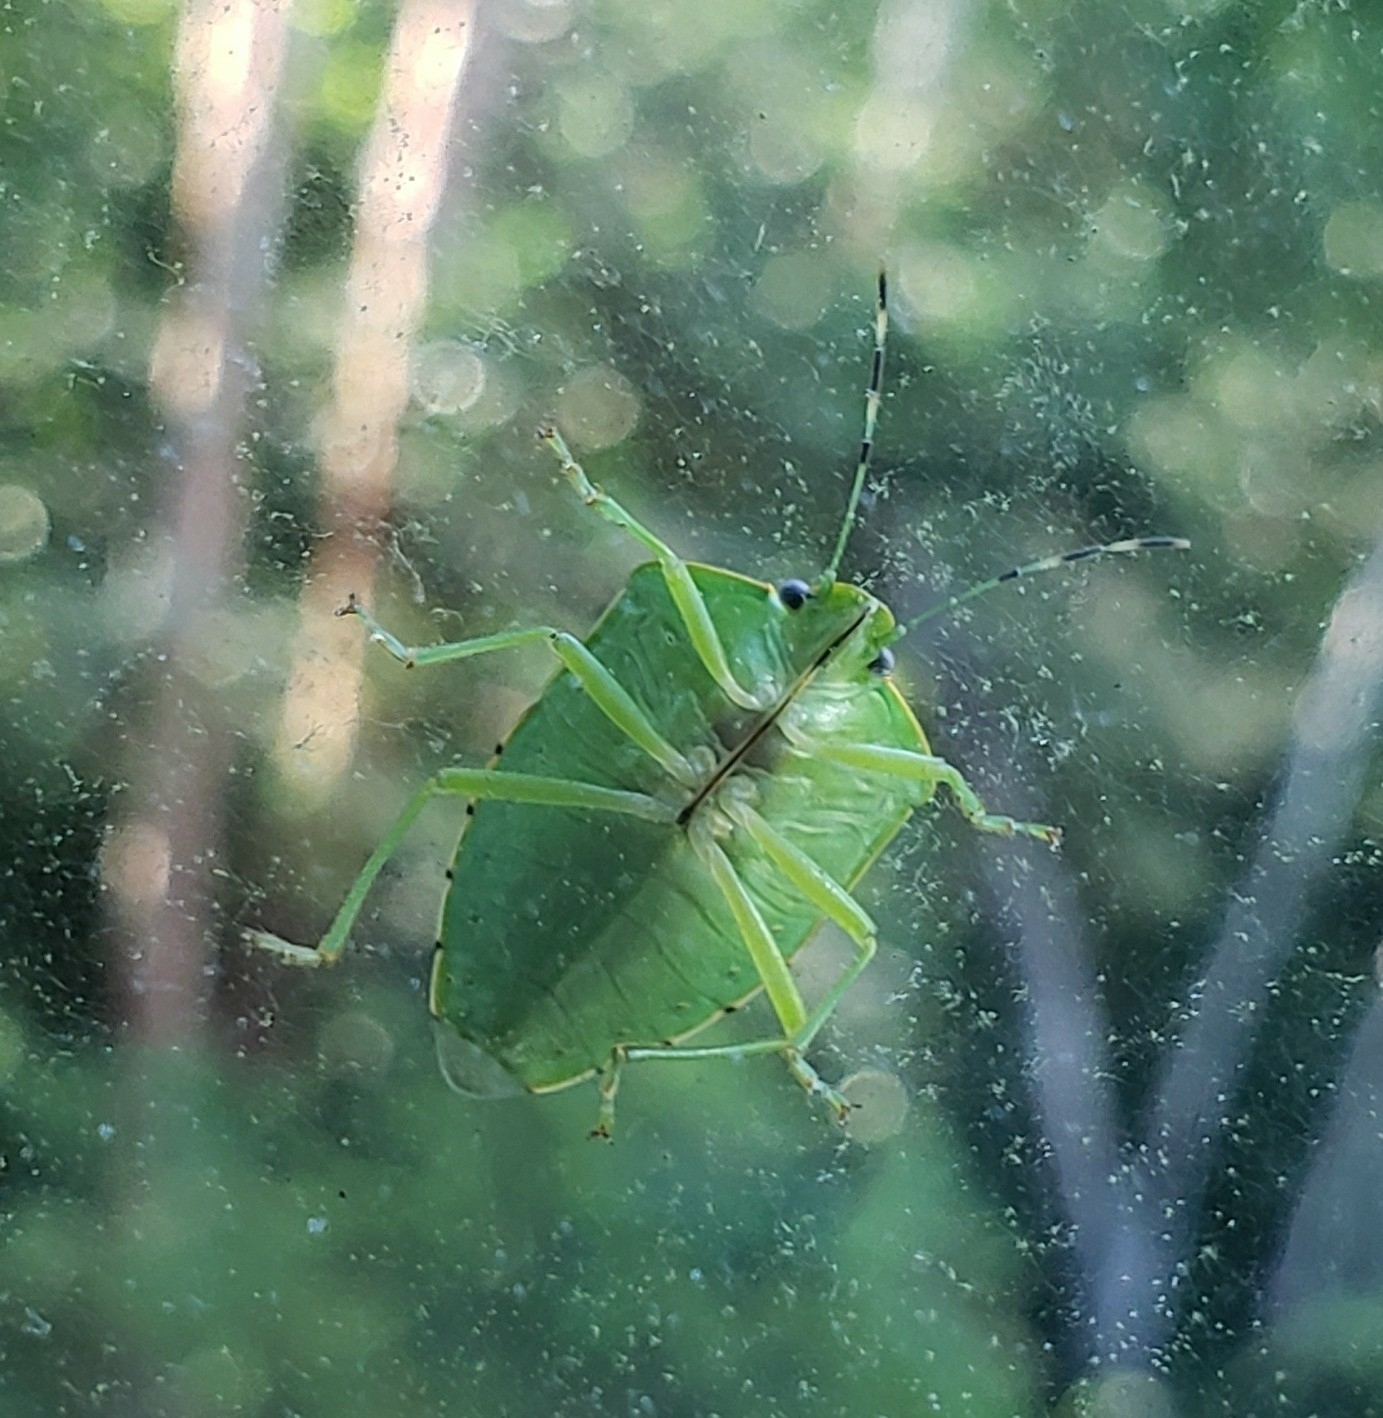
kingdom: Animalia
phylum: Arthropoda
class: Insecta
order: Hemiptera
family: Pentatomidae
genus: Chinavia
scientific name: Chinavia hilaris
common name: Green stink bug
